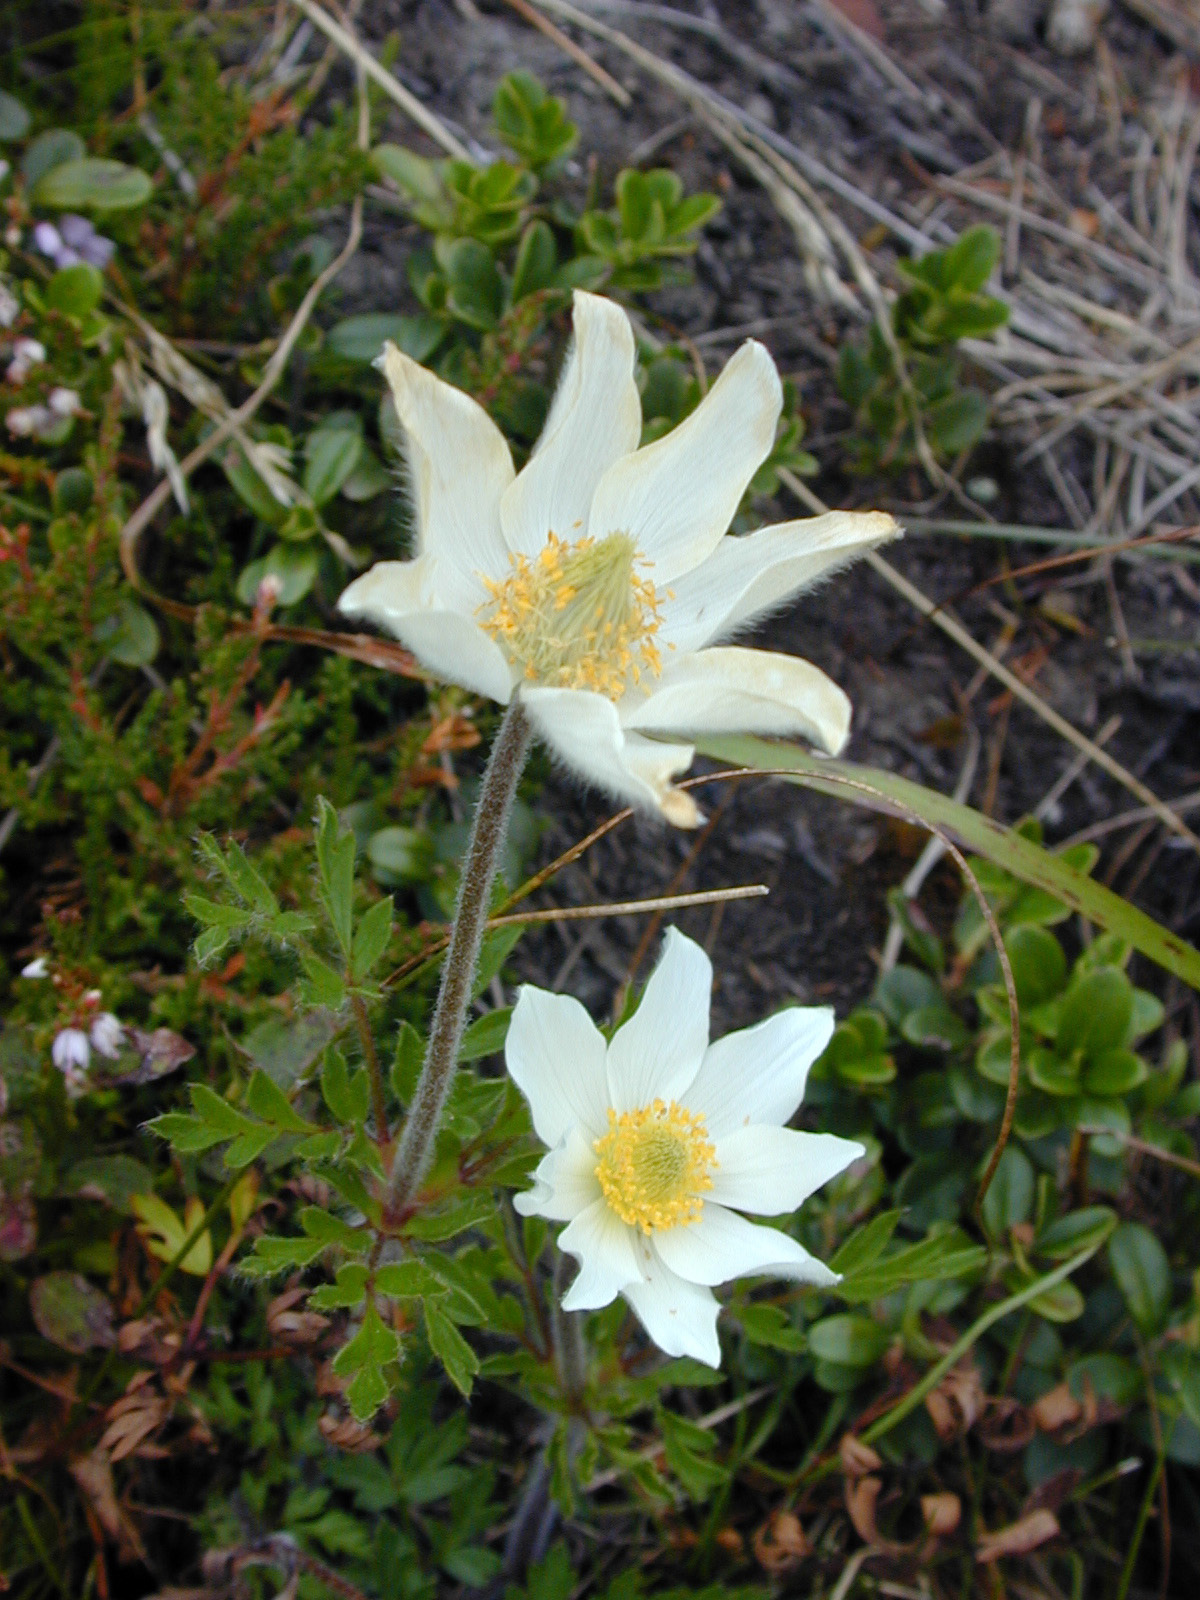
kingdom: Plantae
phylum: Tracheophyta
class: Magnoliopsida
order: Ranunculales
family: Ranunculaceae
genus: Pulsatilla
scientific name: Pulsatilla alpina
